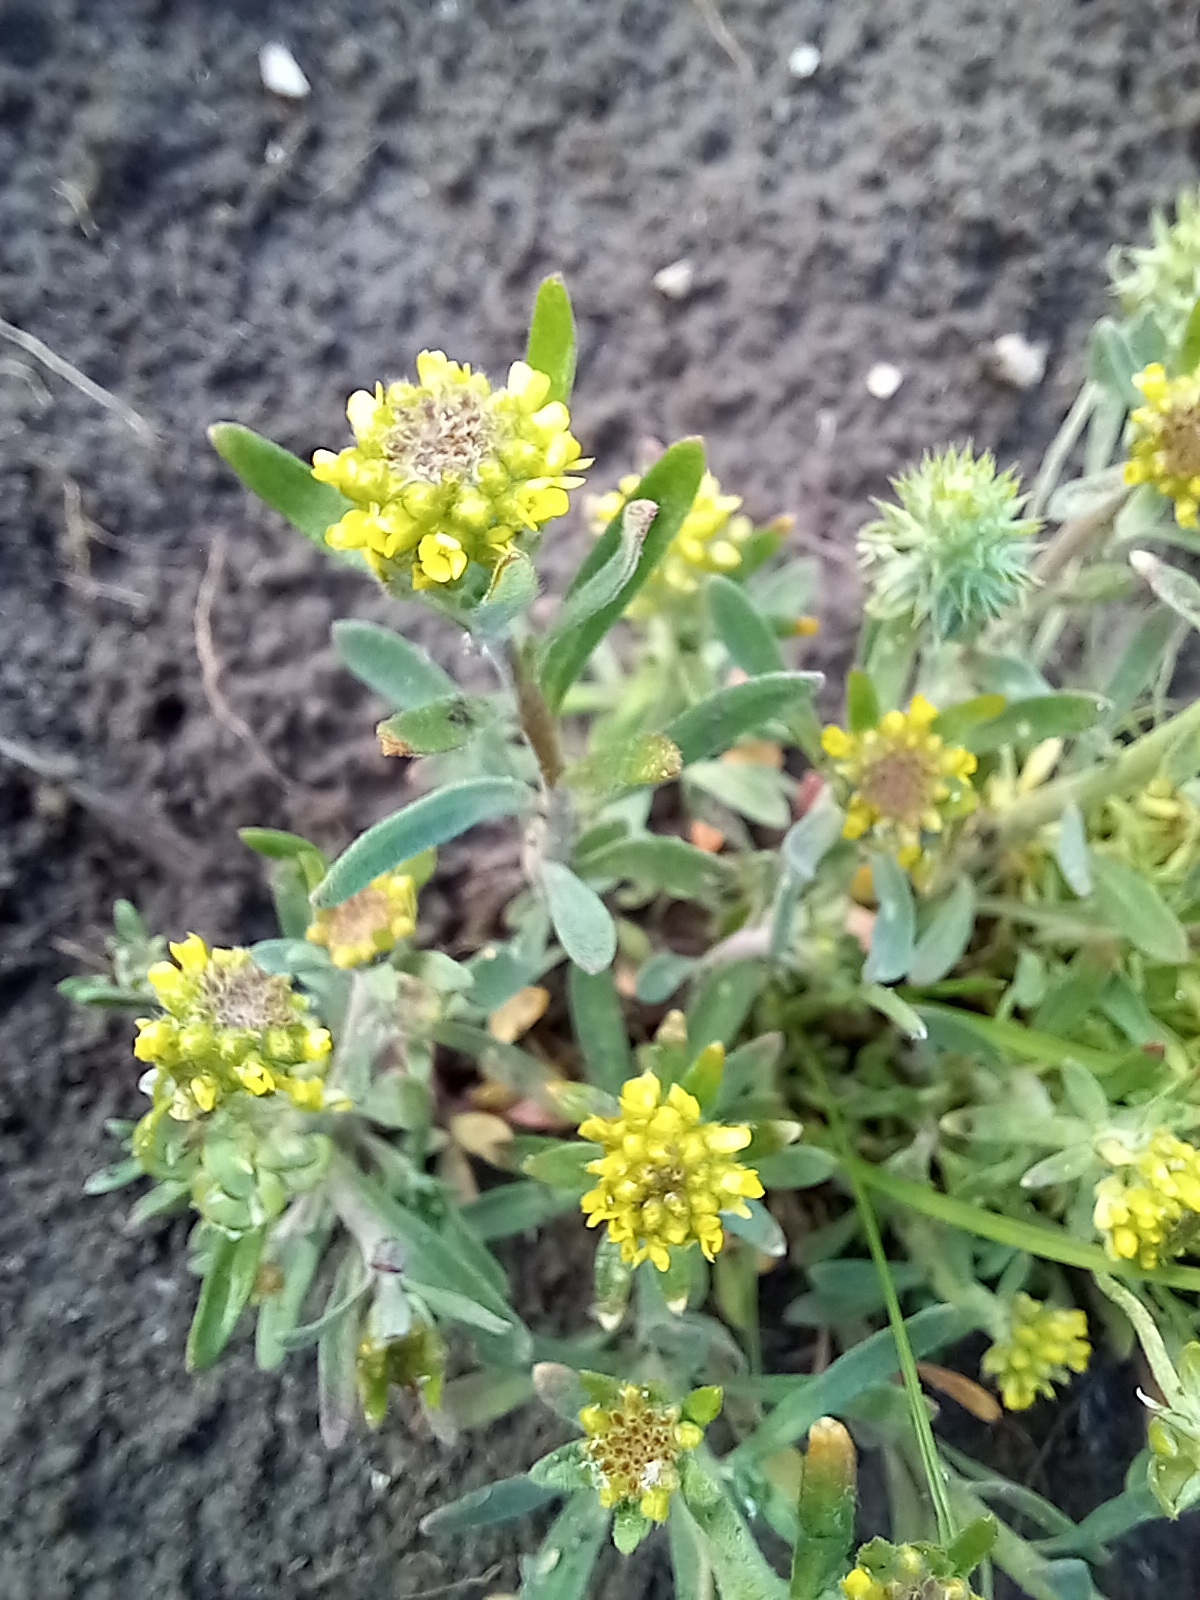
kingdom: Plantae
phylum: Tracheophyta
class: Magnoliopsida
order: Brassicales
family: Brassicaceae
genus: Alyssum
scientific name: Alyssum turkestanicum
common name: Desert alyssum
